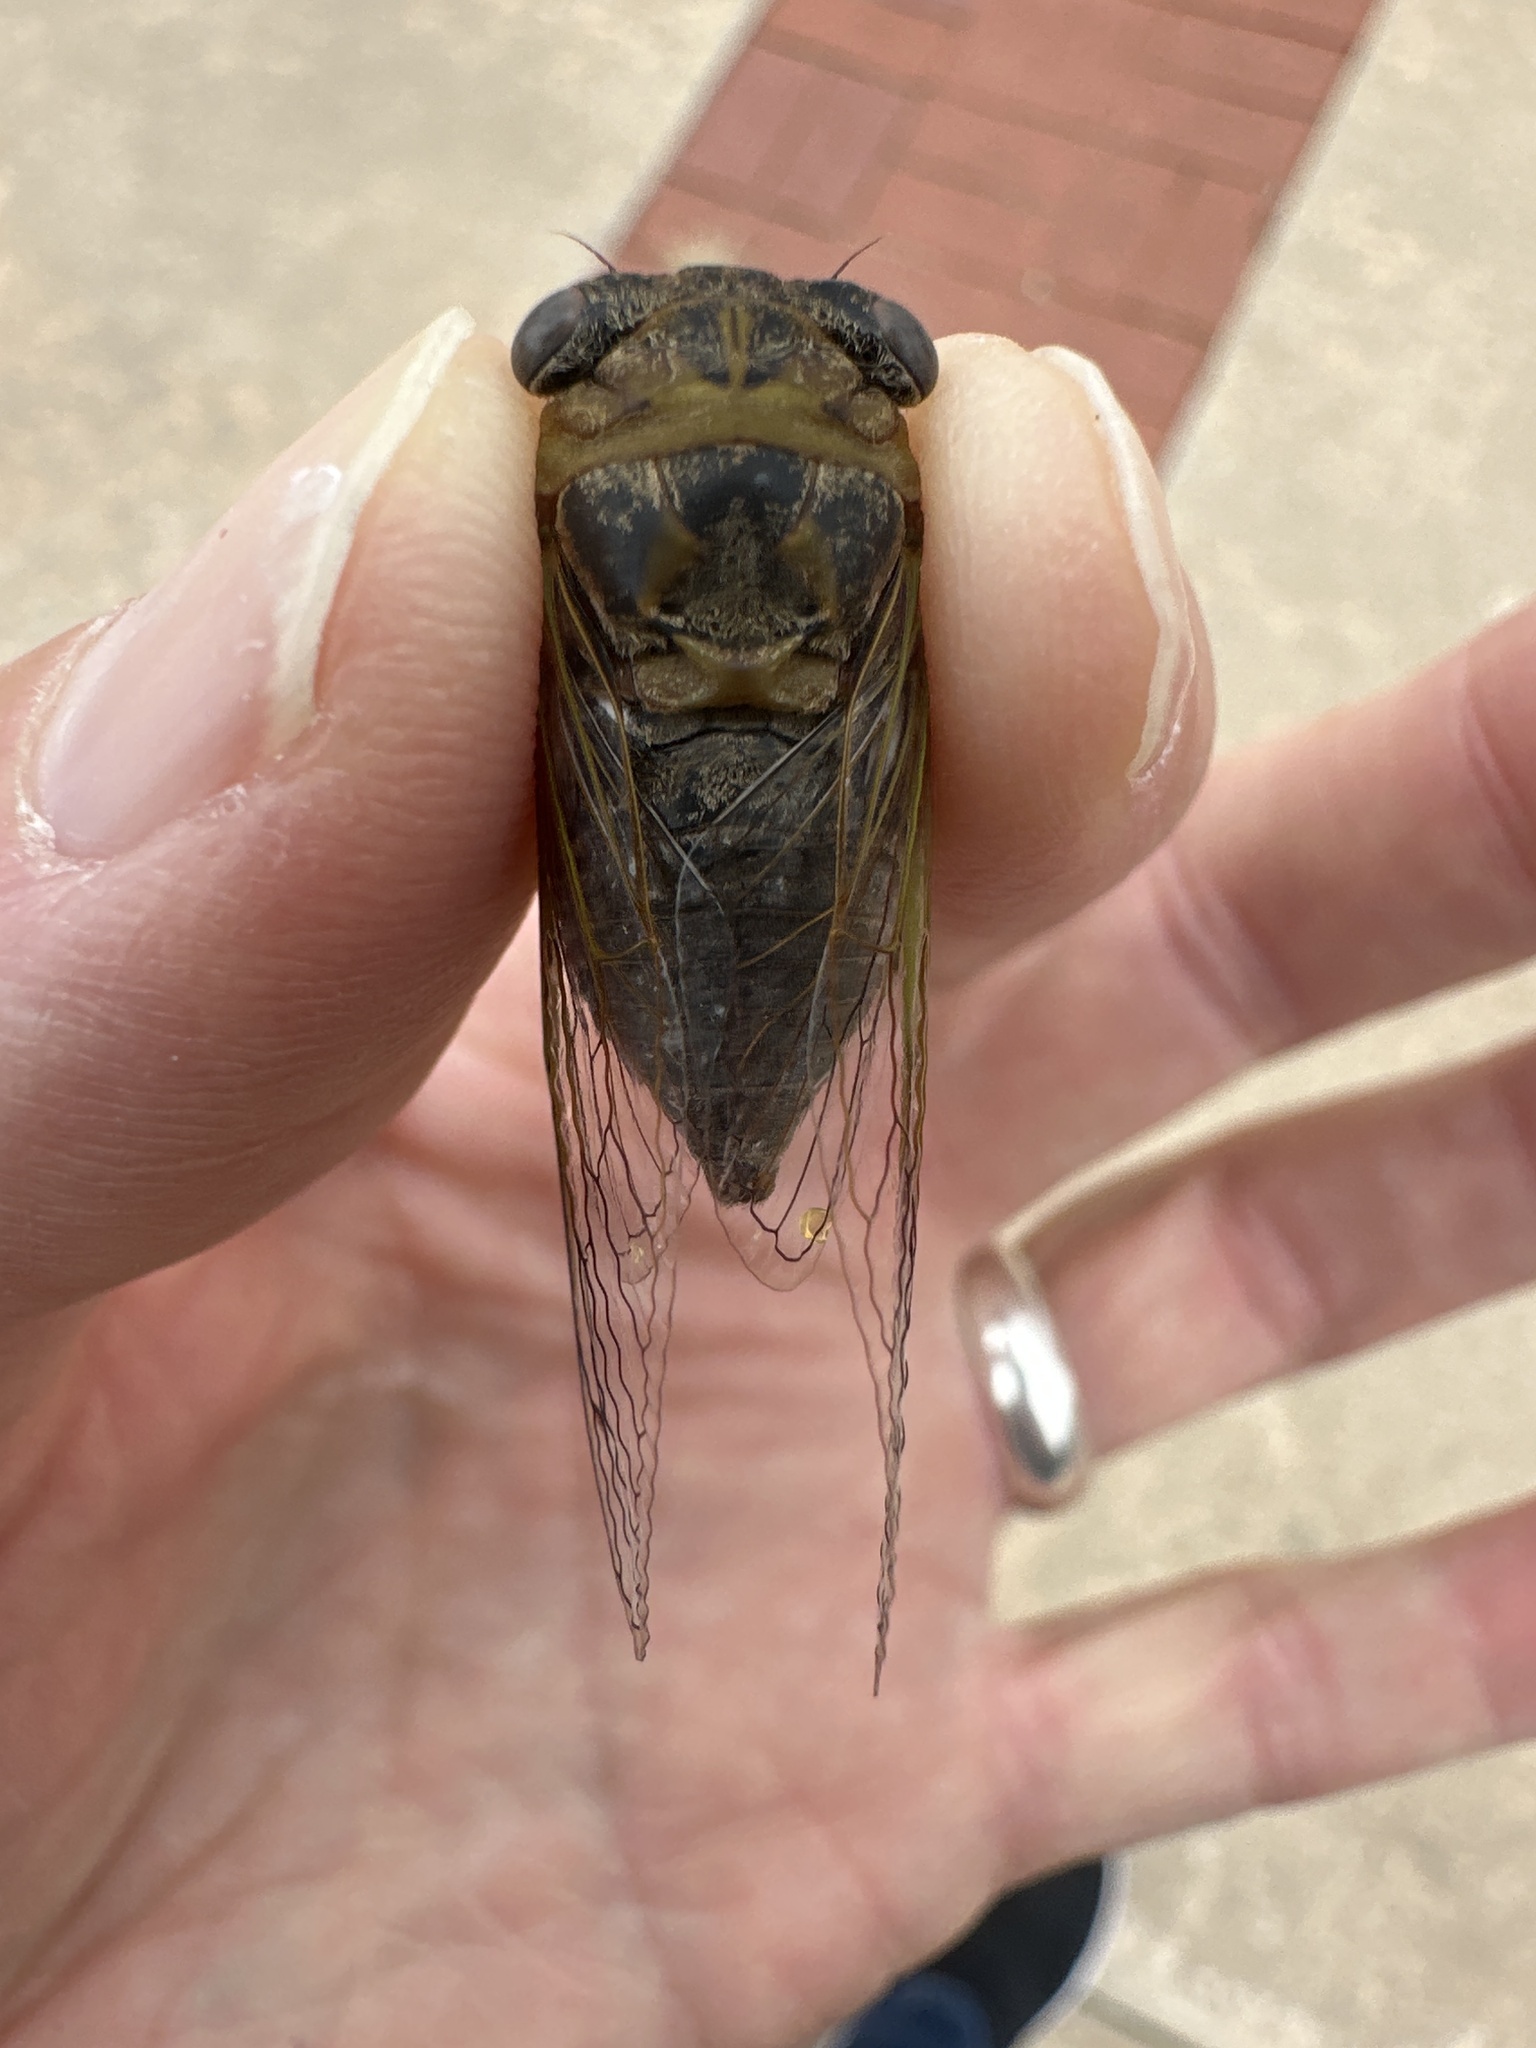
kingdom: Animalia
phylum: Arthropoda
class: Insecta
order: Hemiptera
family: Cicadidae
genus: Neotibicen
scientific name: Neotibicen aurifer
